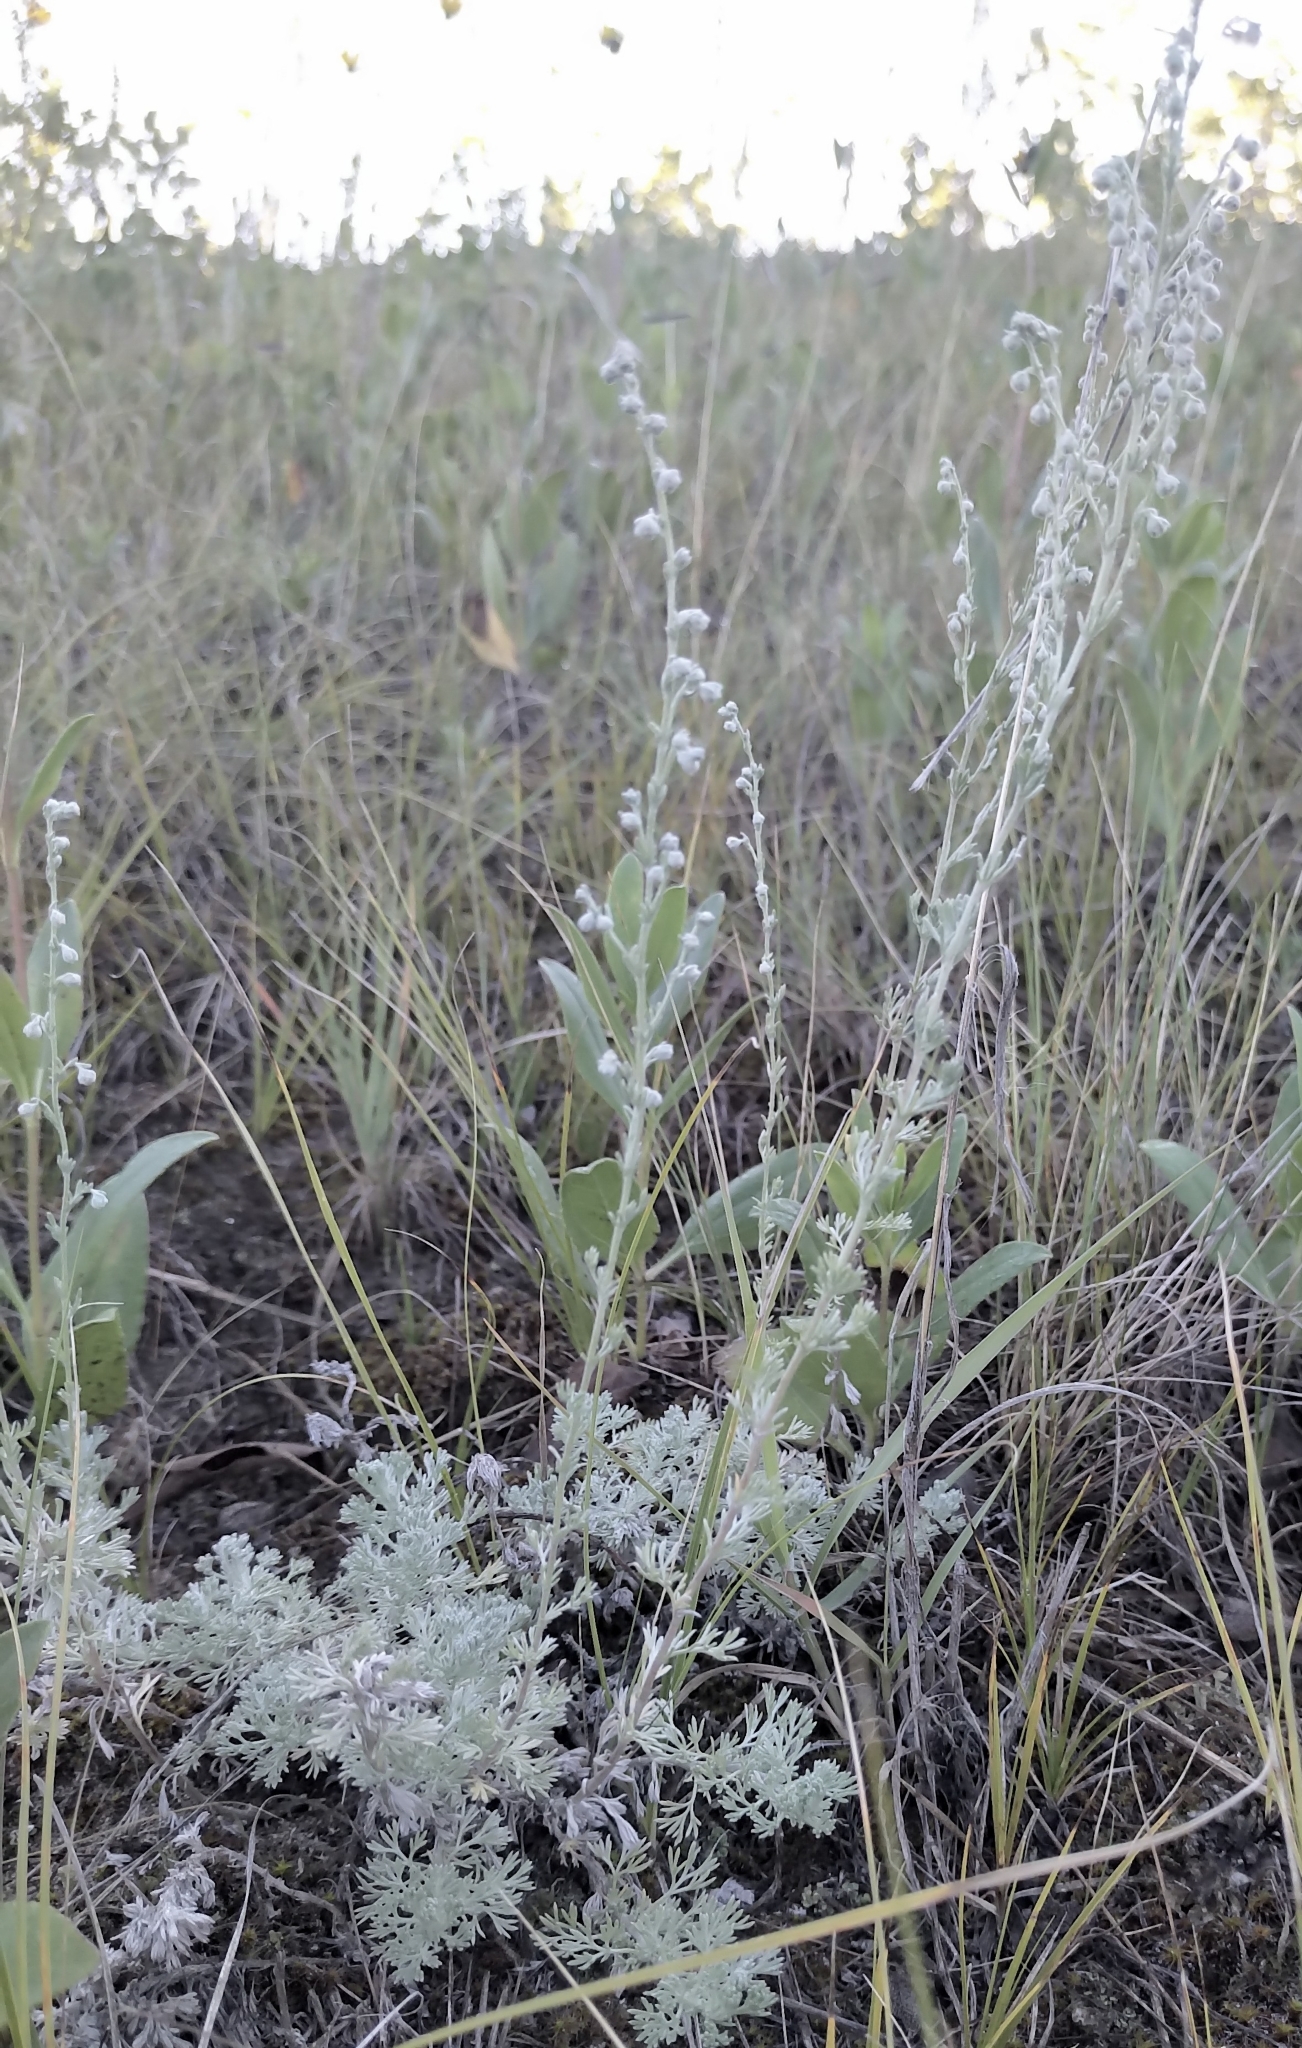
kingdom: Plantae
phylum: Tracheophyta
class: Magnoliopsida
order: Asterales
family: Asteraceae
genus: Artemisia
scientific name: Artemisia frigida
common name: Prairie sagewort
